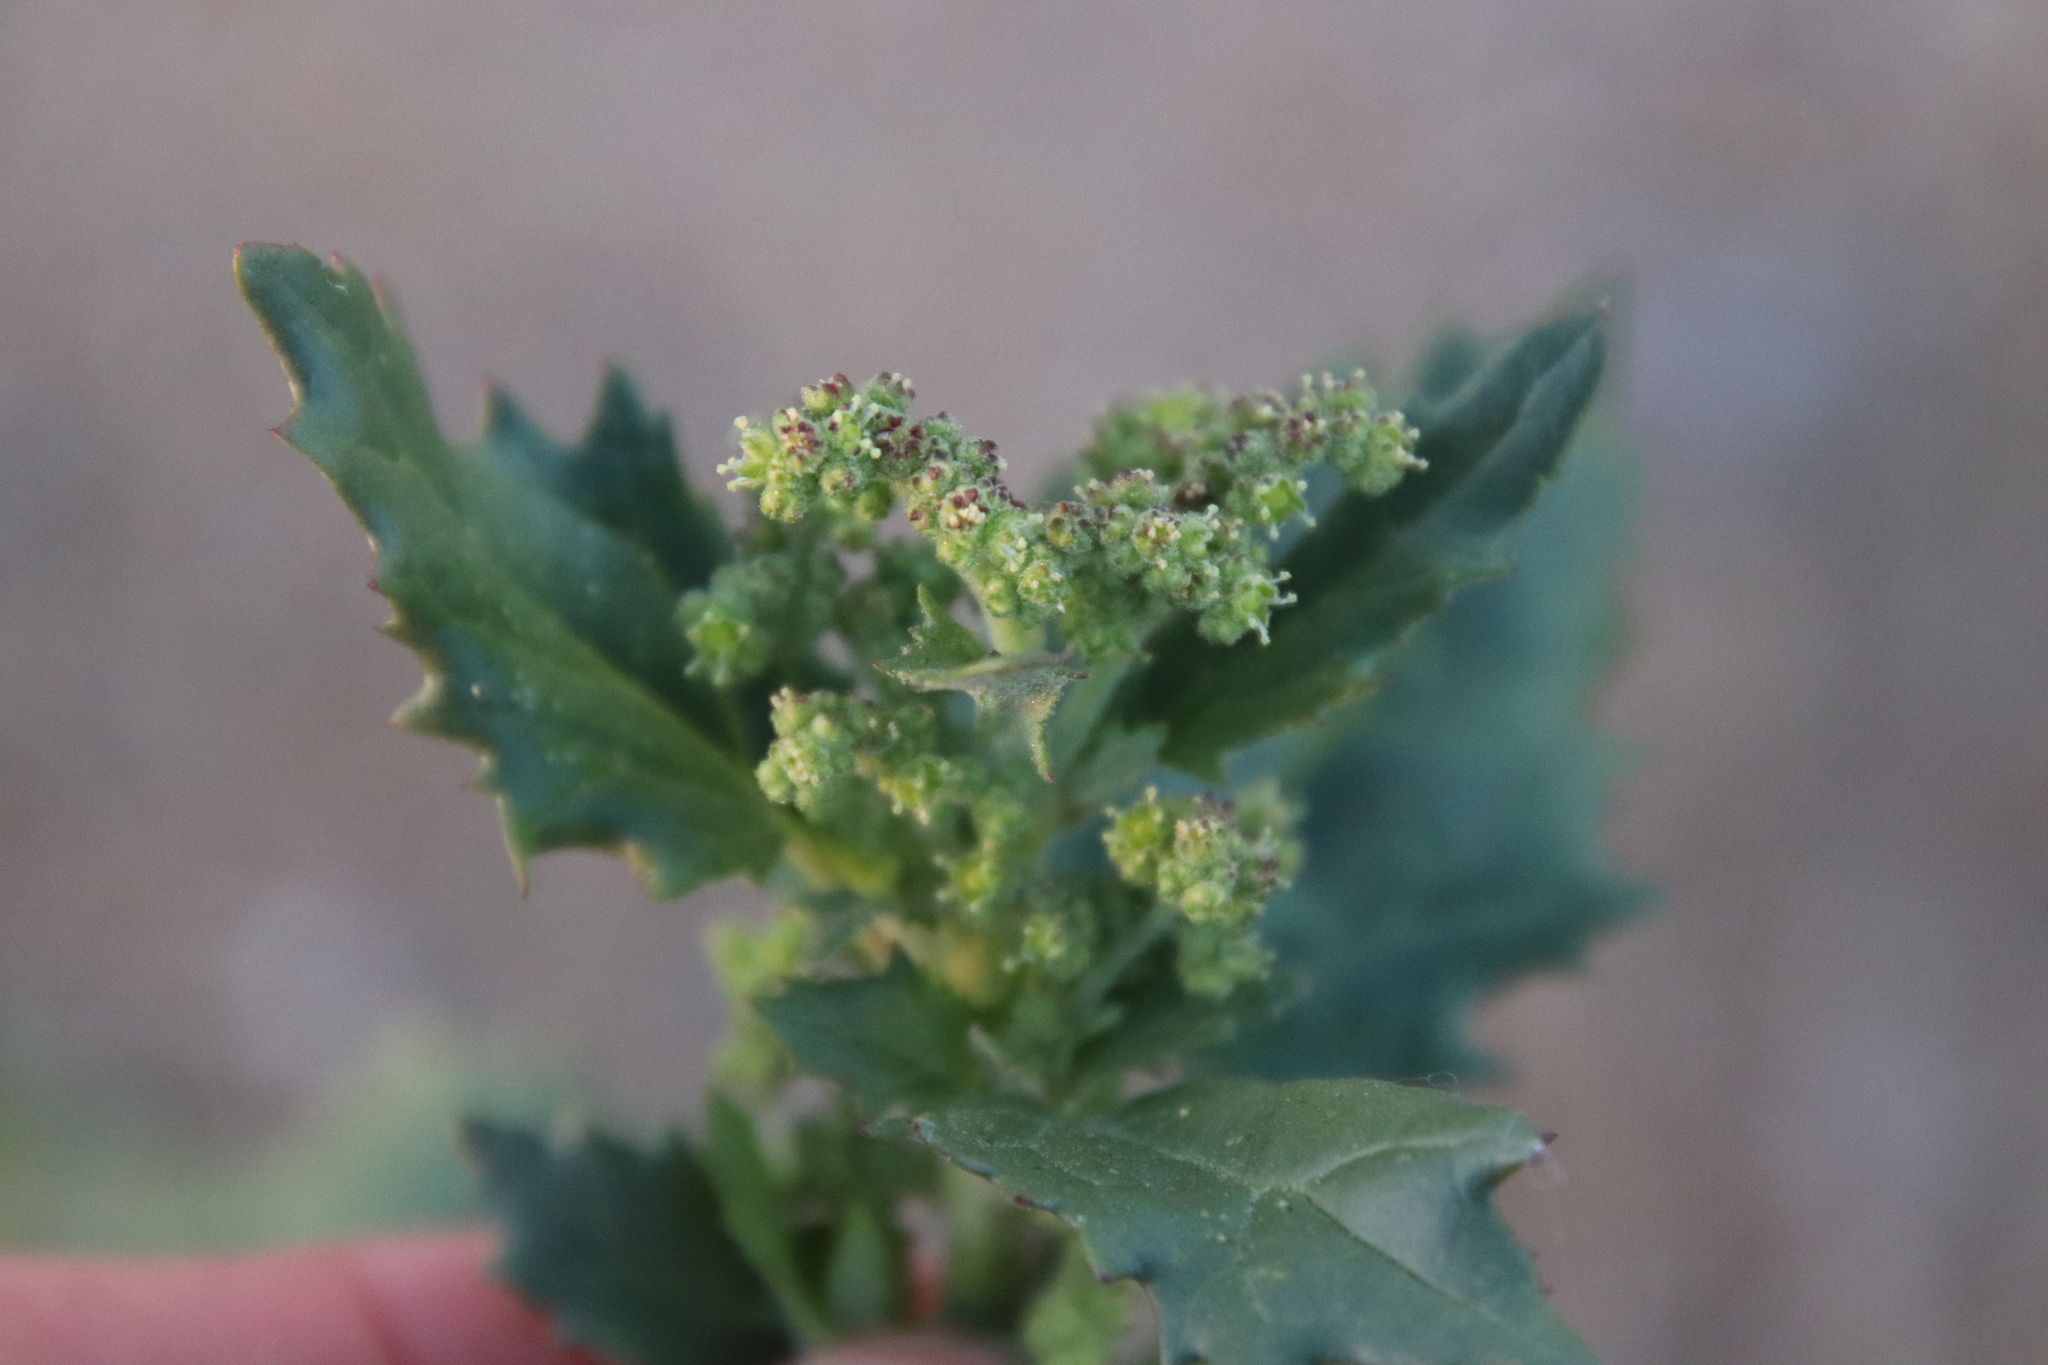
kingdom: Plantae
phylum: Tracheophyta
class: Magnoliopsida
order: Caryophyllales
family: Amaranthaceae
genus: Chenopodiastrum
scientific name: Chenopodiastrum murale
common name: Sowbane
